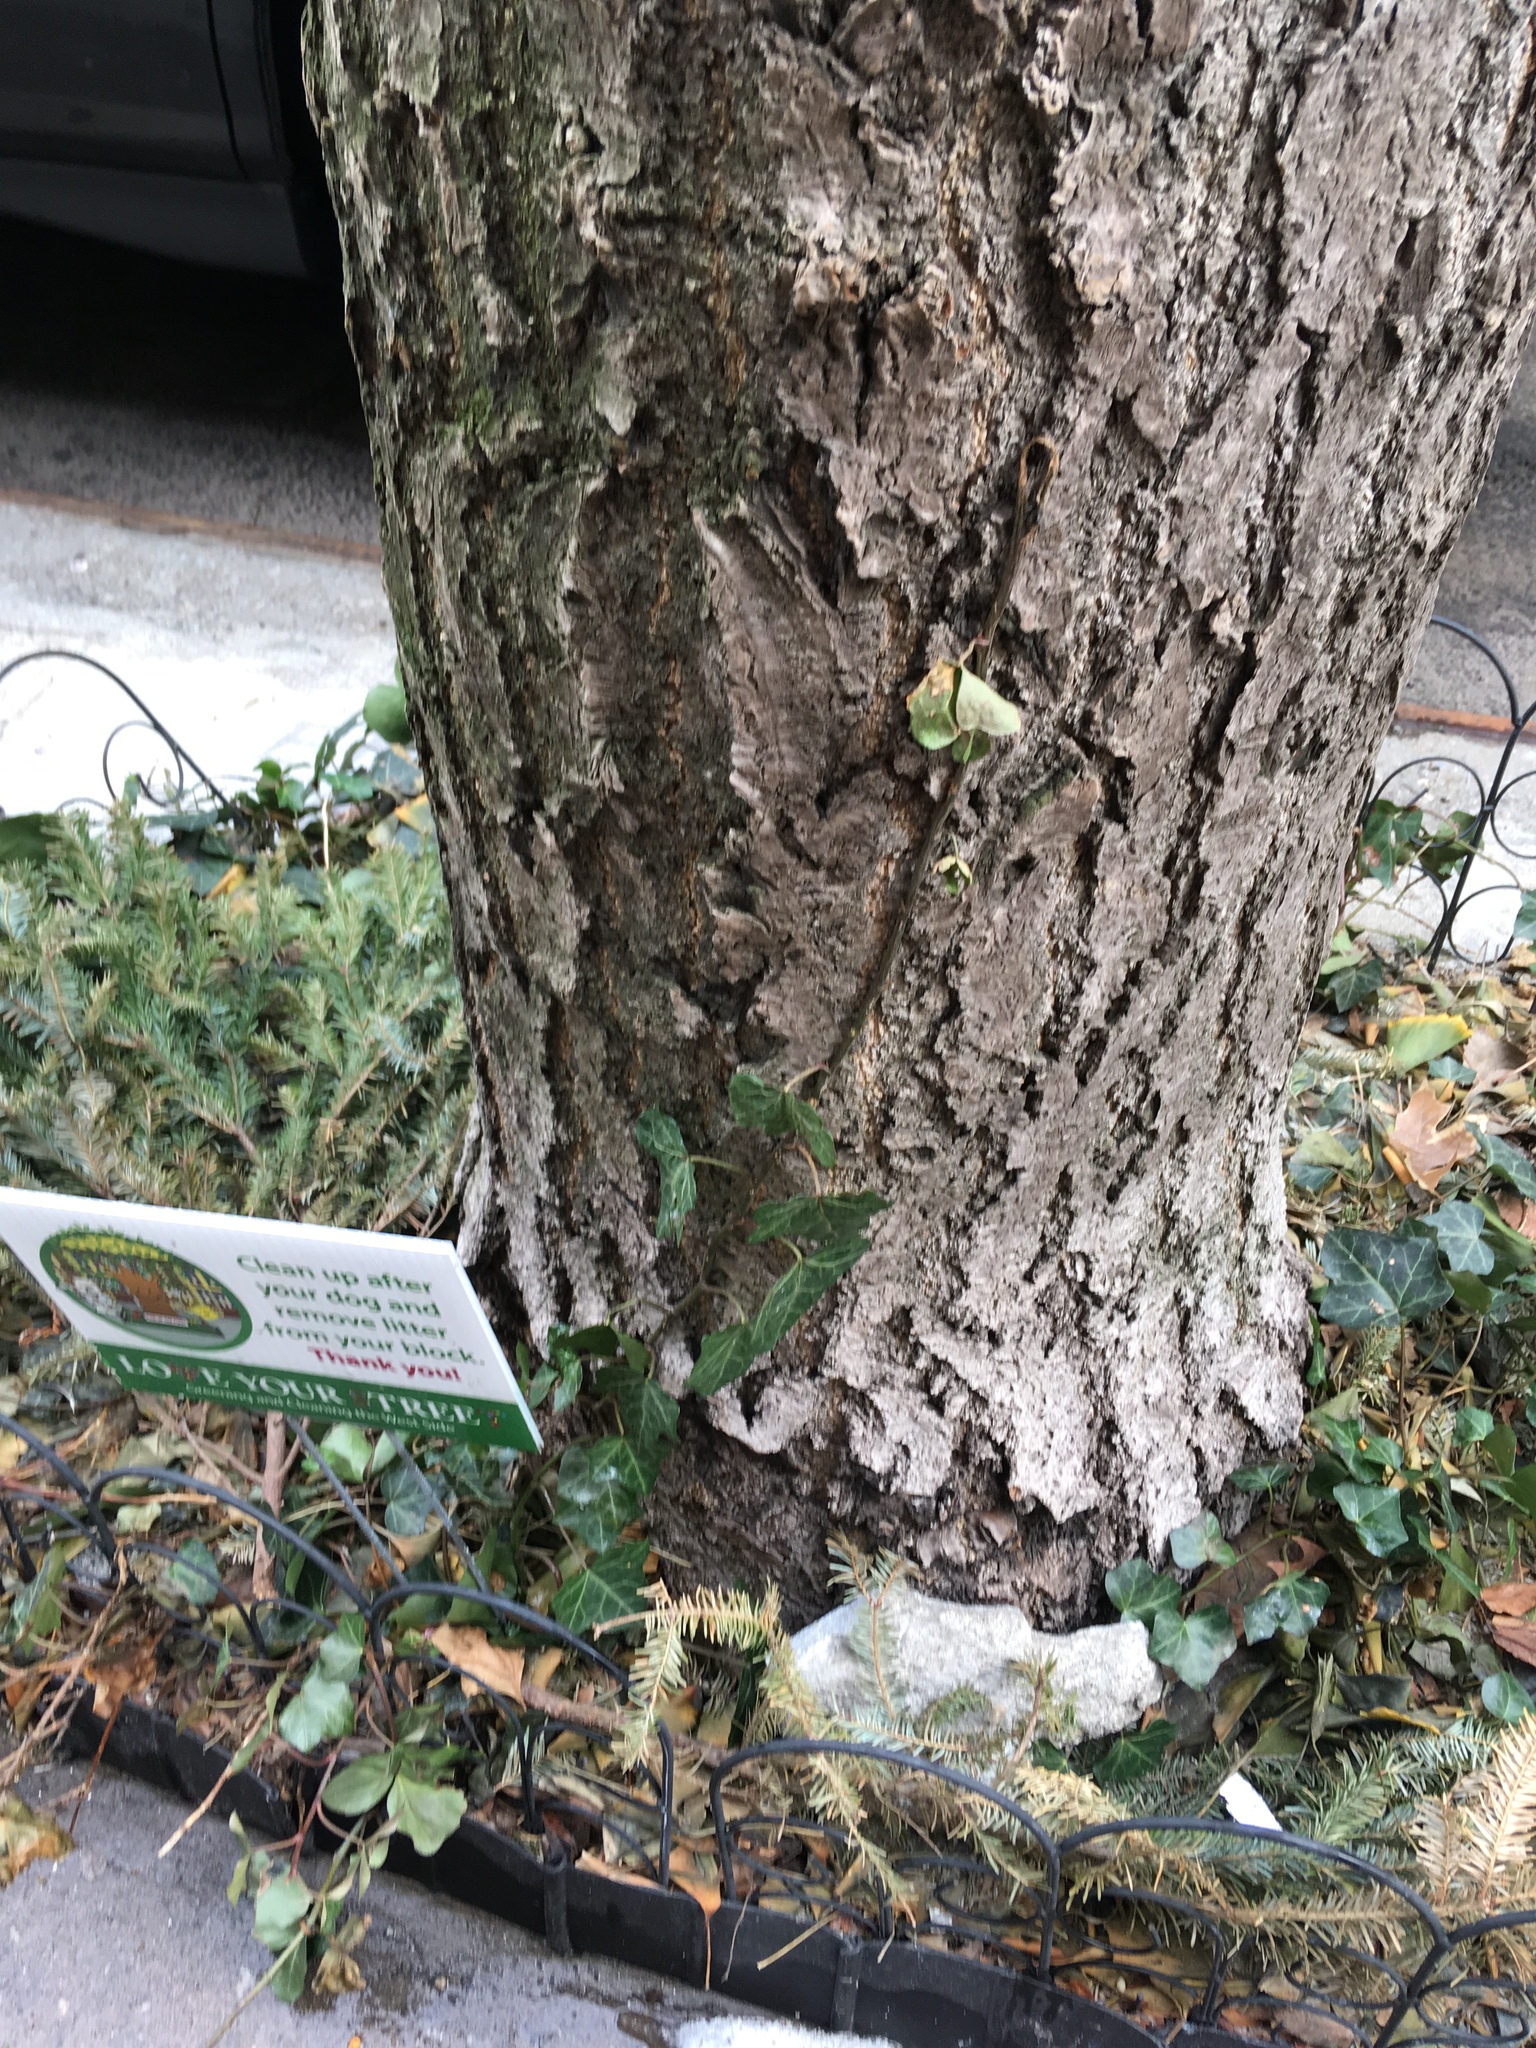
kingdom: Plantae
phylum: Tracheophyta
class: Magnoliopsida
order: Apiales
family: Araliaceae
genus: Hedera
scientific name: Hedera helix
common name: Ivy
